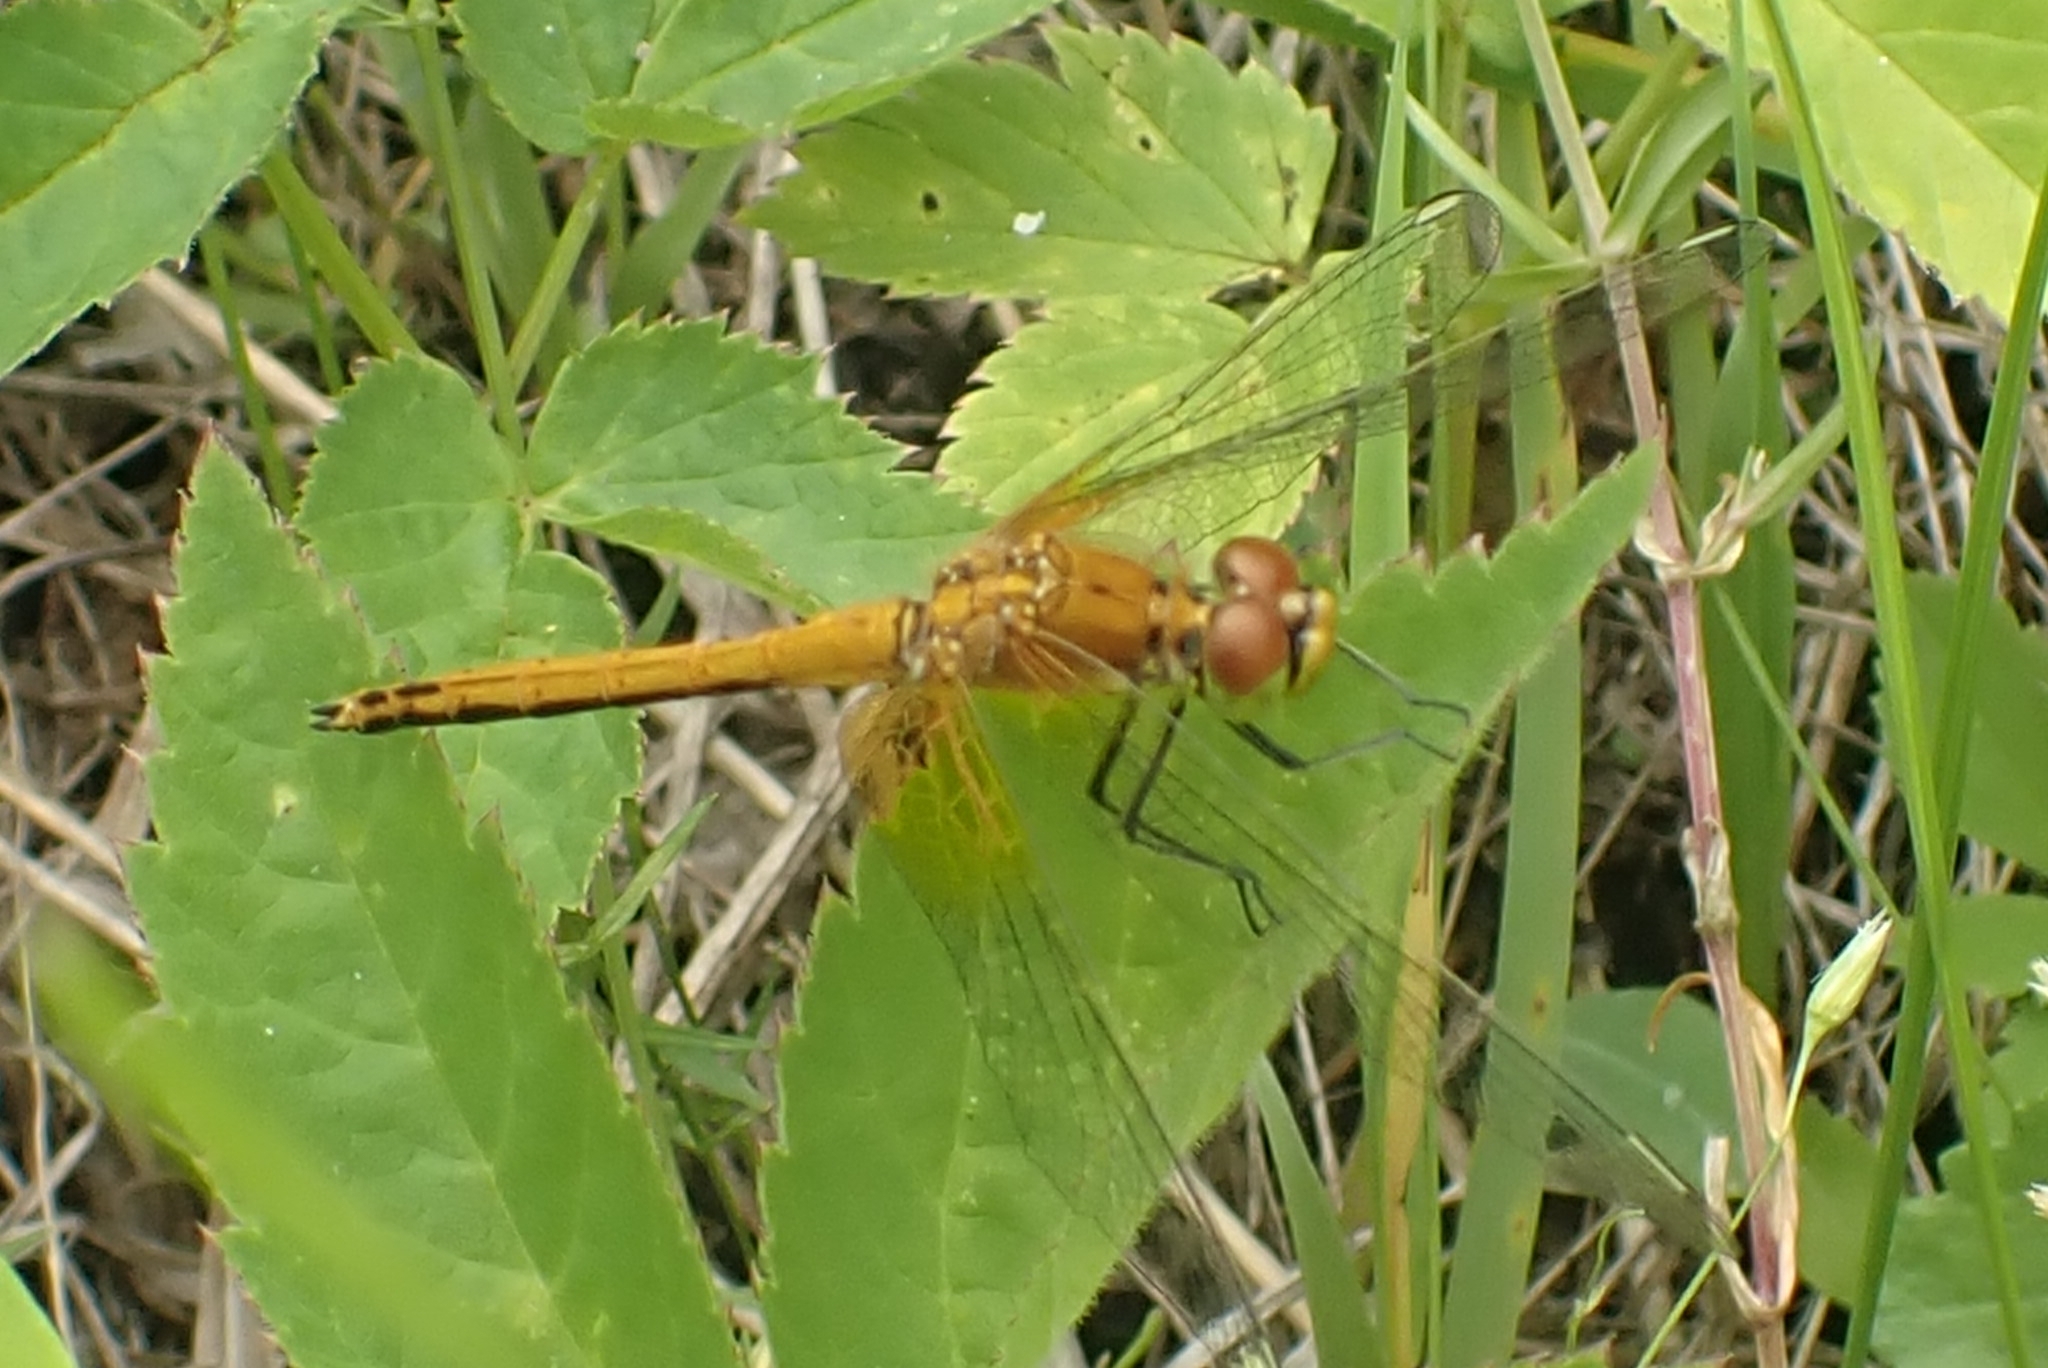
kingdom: Animalia
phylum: Arthropoda
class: Insecta
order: Odonata
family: Libellulidae
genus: Sympetrum
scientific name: Sympetrum flaveolum
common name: Yellow-winged darter
